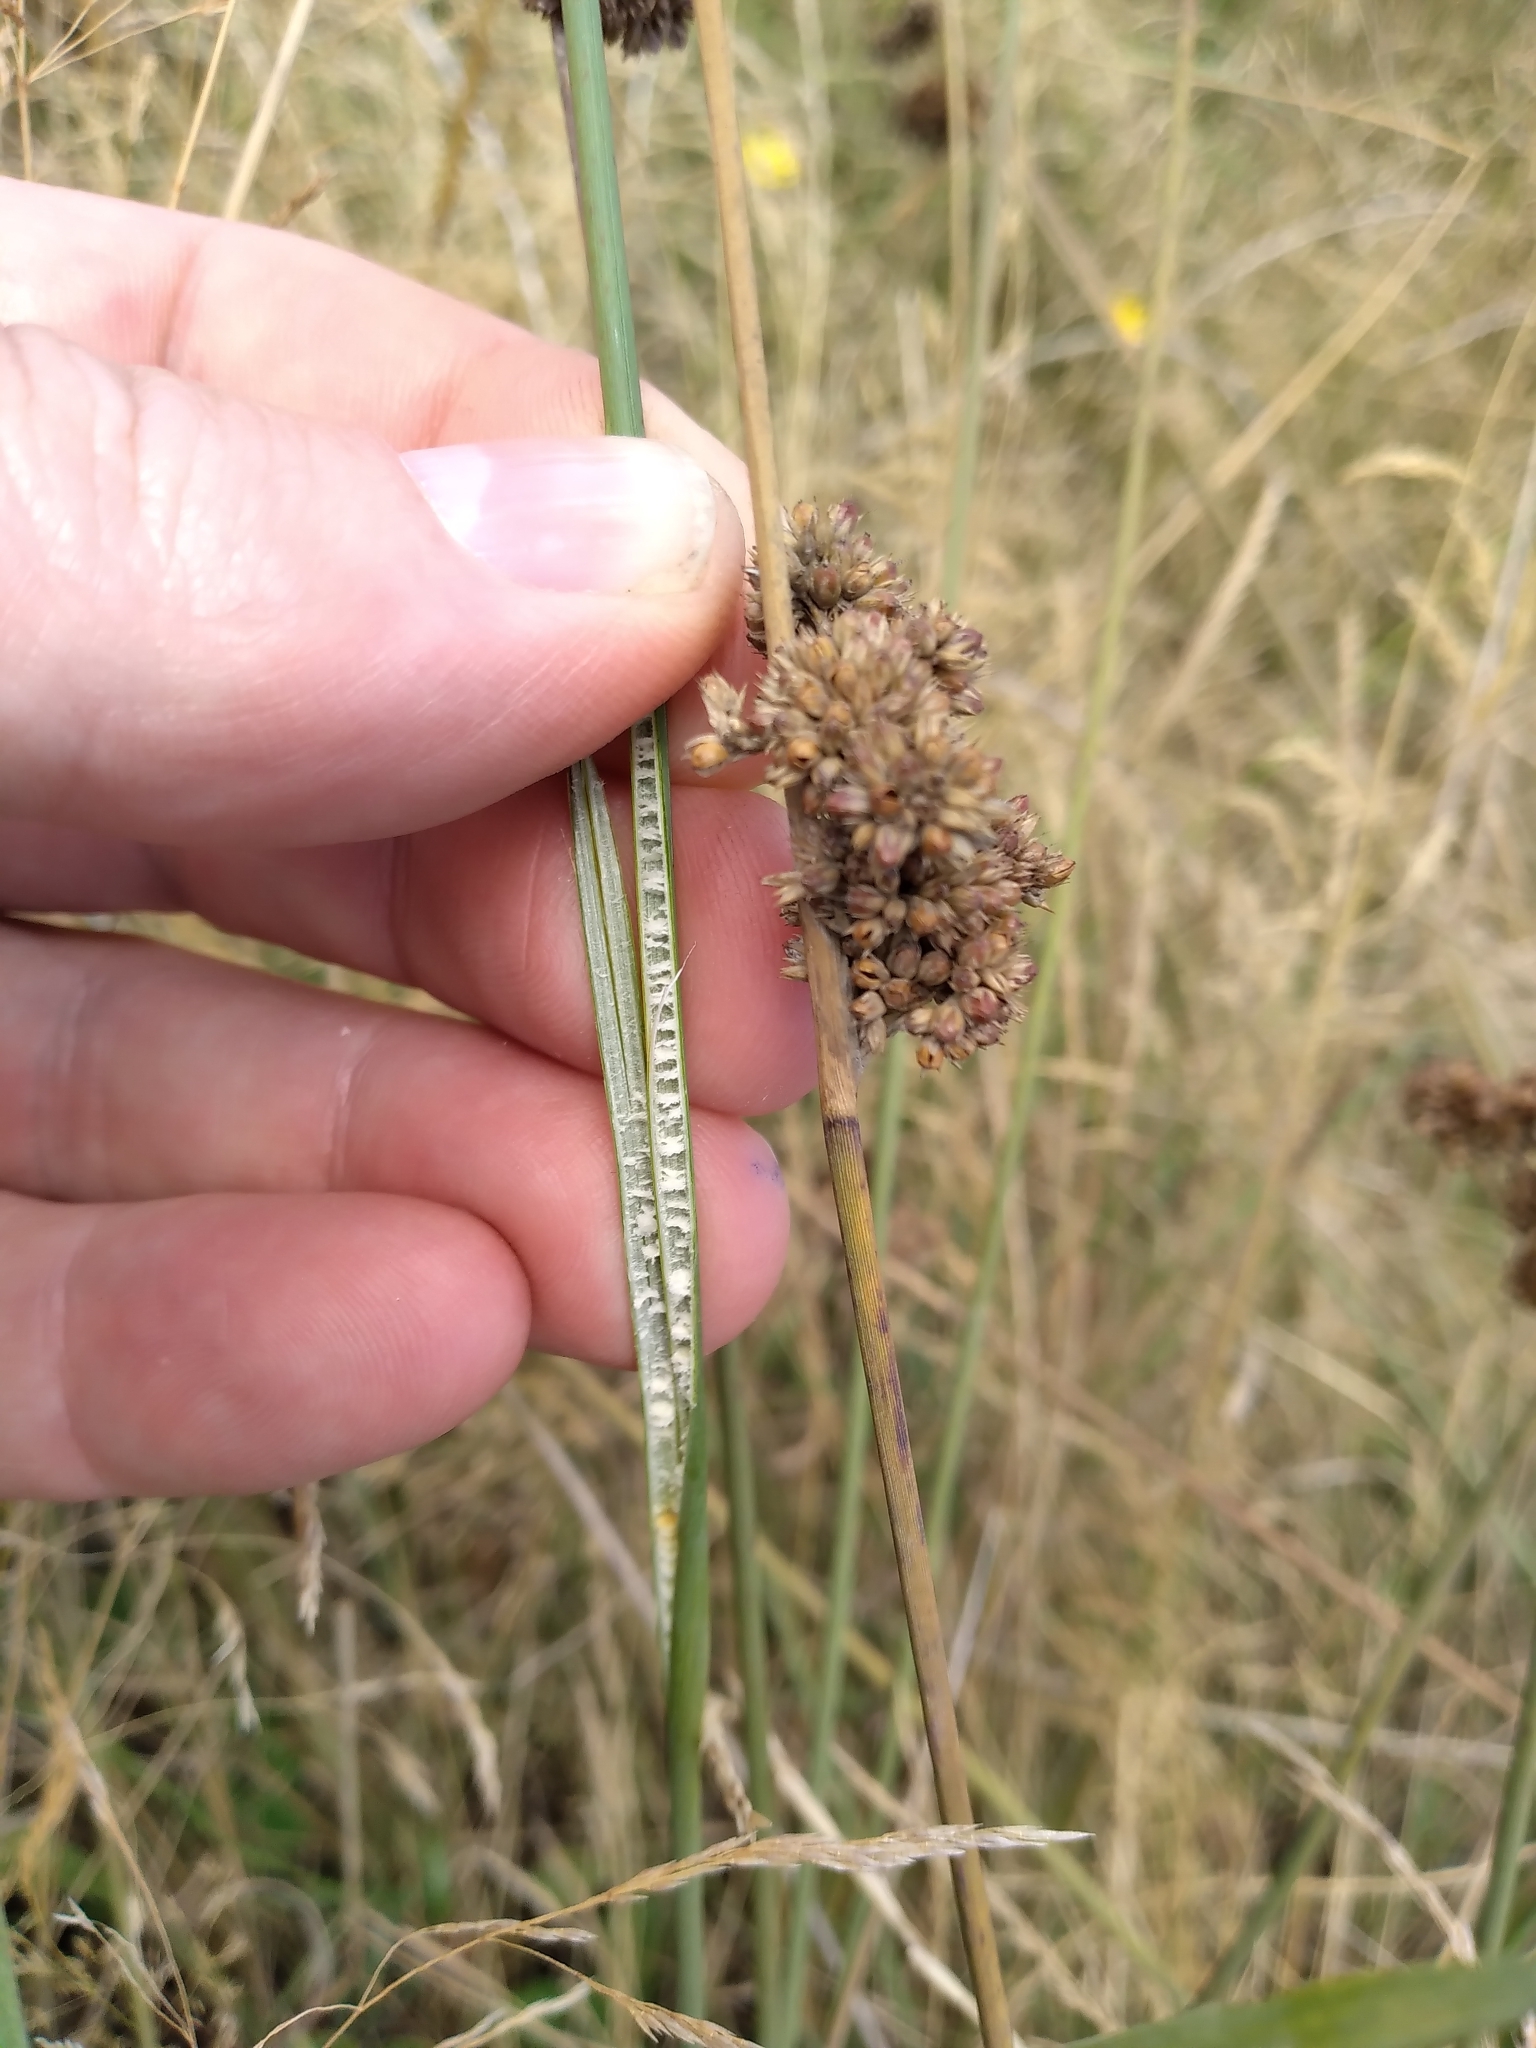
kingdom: Plantae
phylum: Tracheophyta
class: Liliopsida
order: Poales
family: Juncaceae
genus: Juncus
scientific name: Juncus australis
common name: Austral rush
